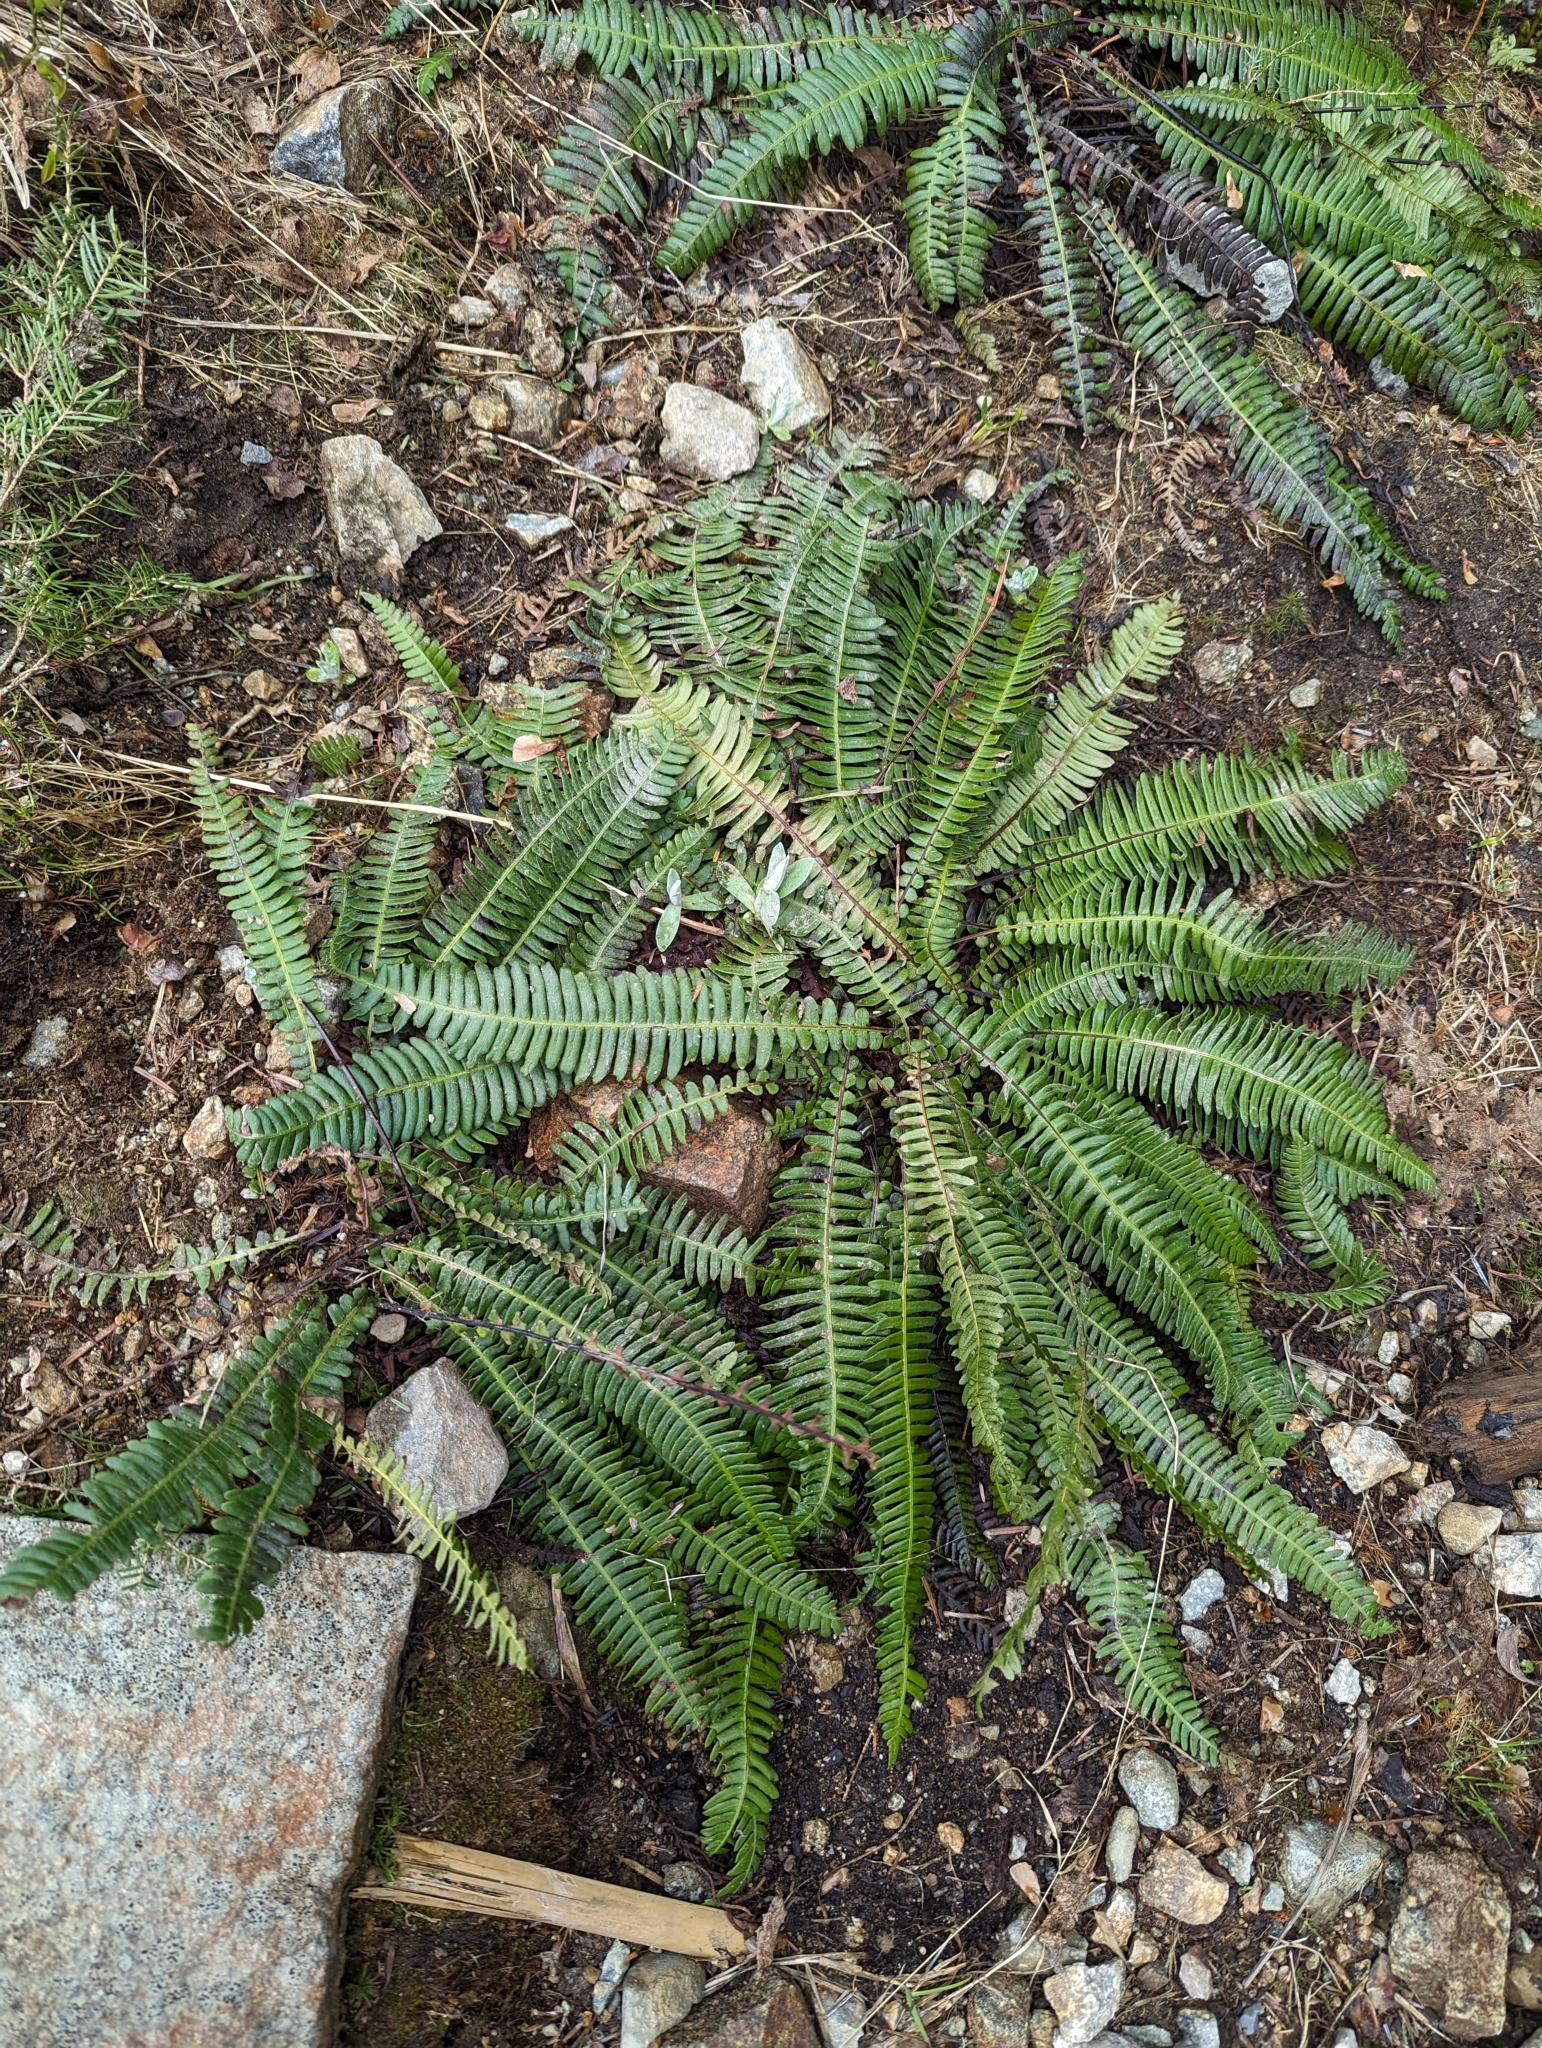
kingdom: Plantae
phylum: Tracheophyta
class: Polypodiopsida
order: Polypodiales
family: Blechnaceae
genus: Struthiopteris
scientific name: Struthiopteris spicant
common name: Deer fern
